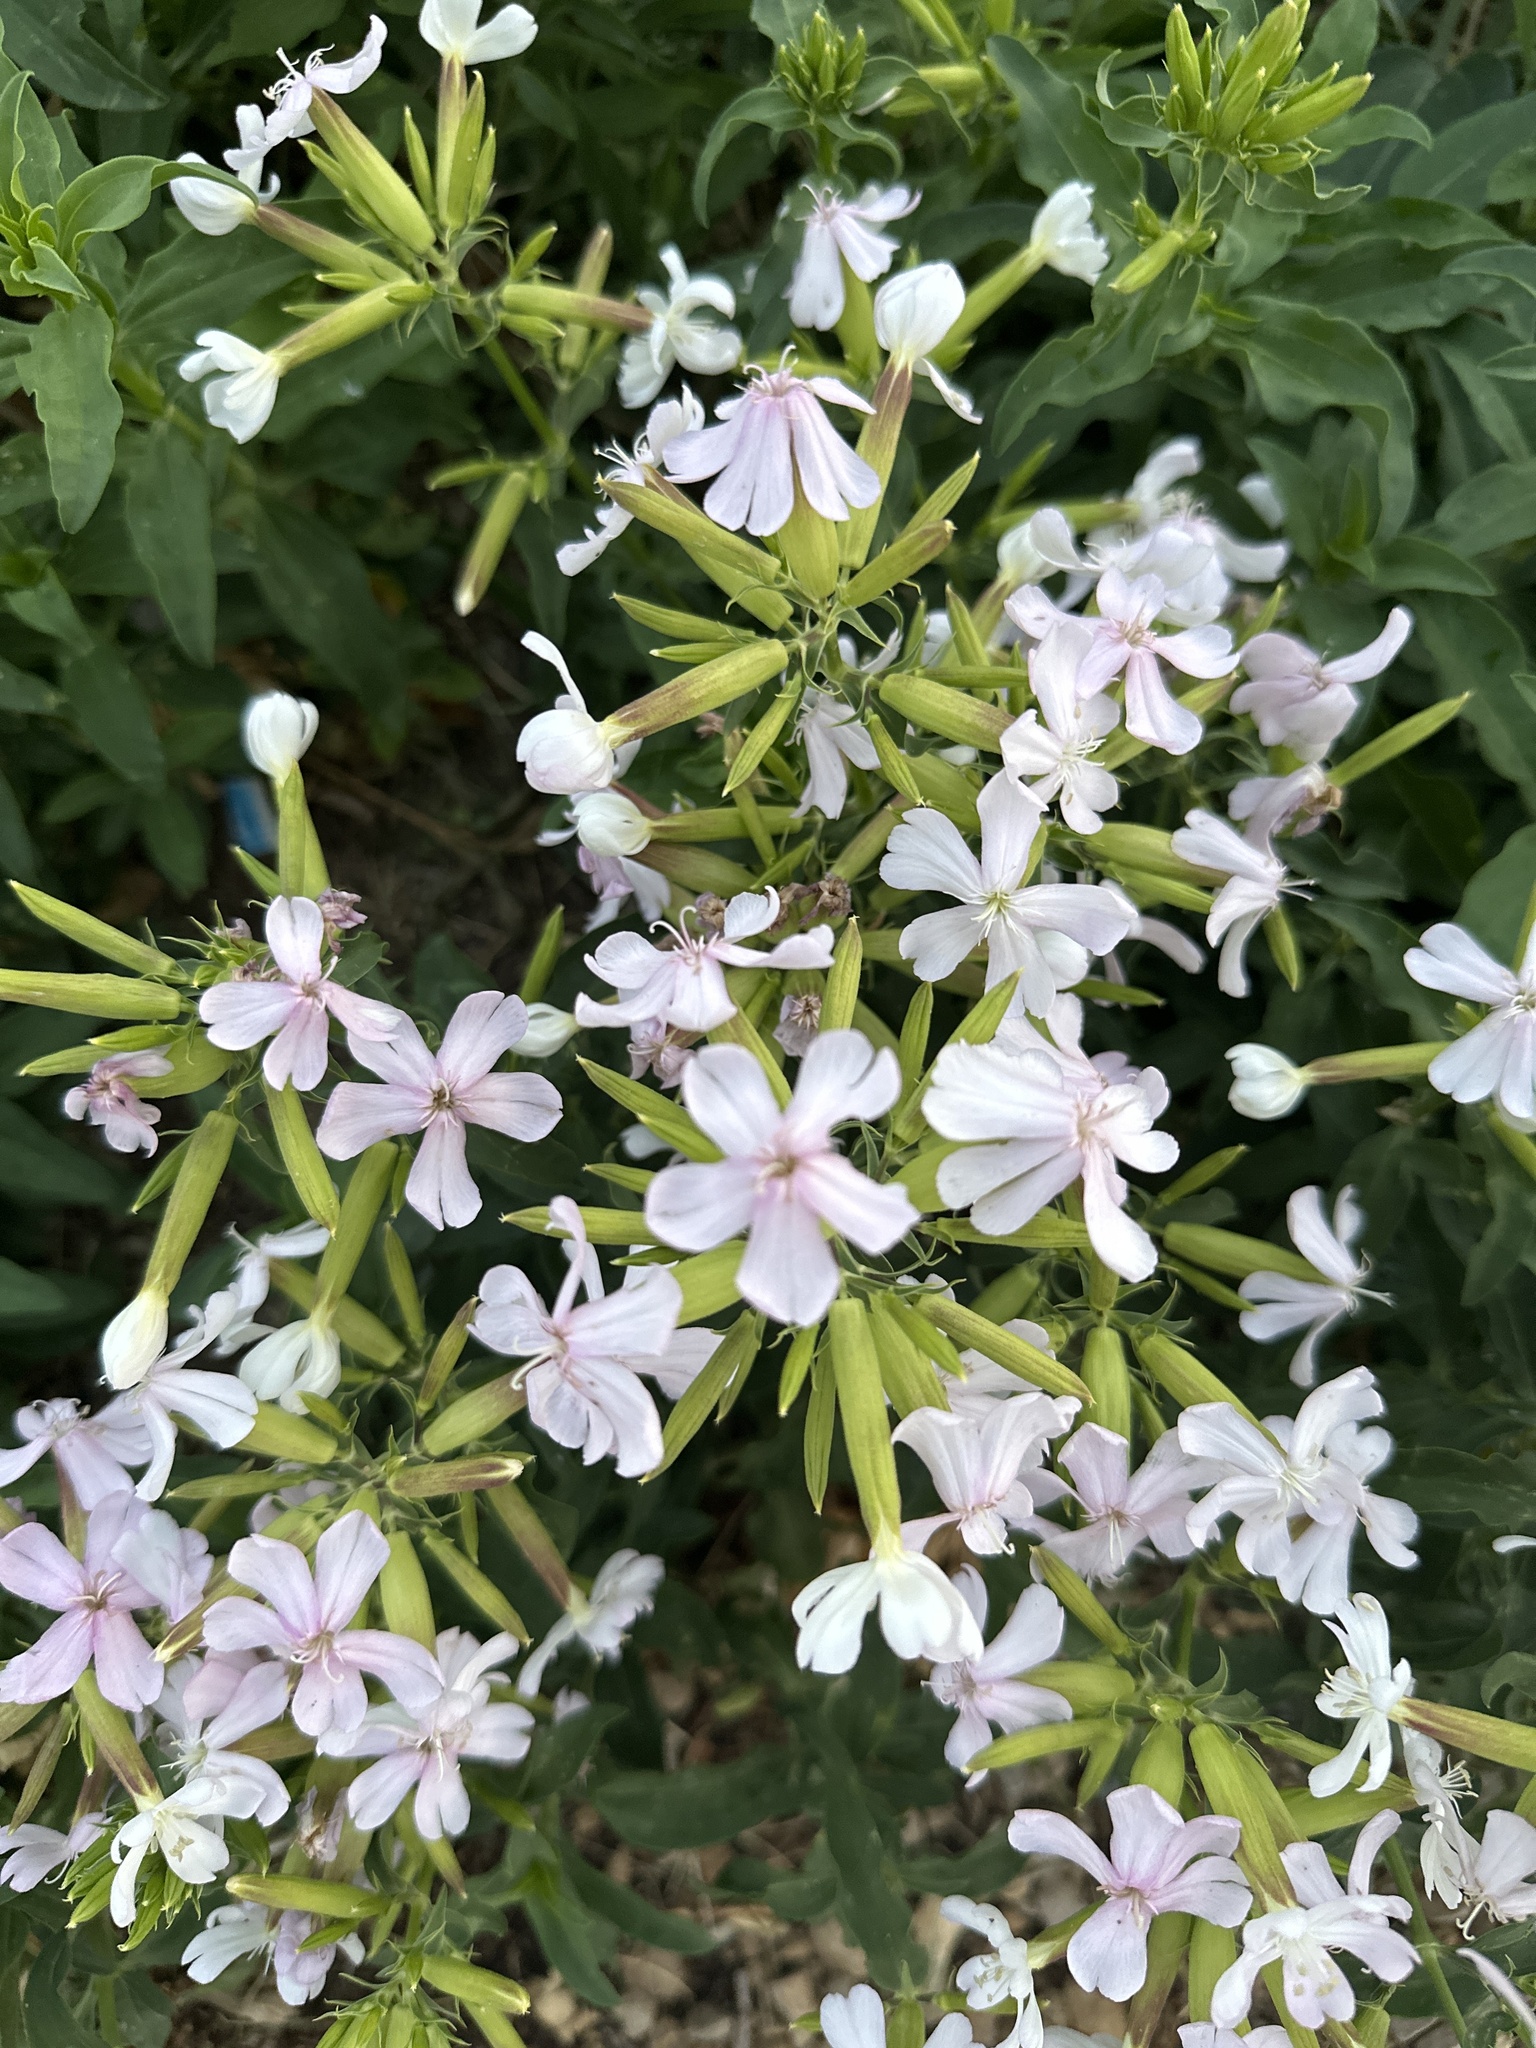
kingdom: Plantae
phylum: Tracheophyta
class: Magnoliopsida
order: Caryophyllales
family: Caryophyllaceae
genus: Saponaria
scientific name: Saponaria officinalis
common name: Soapwort
